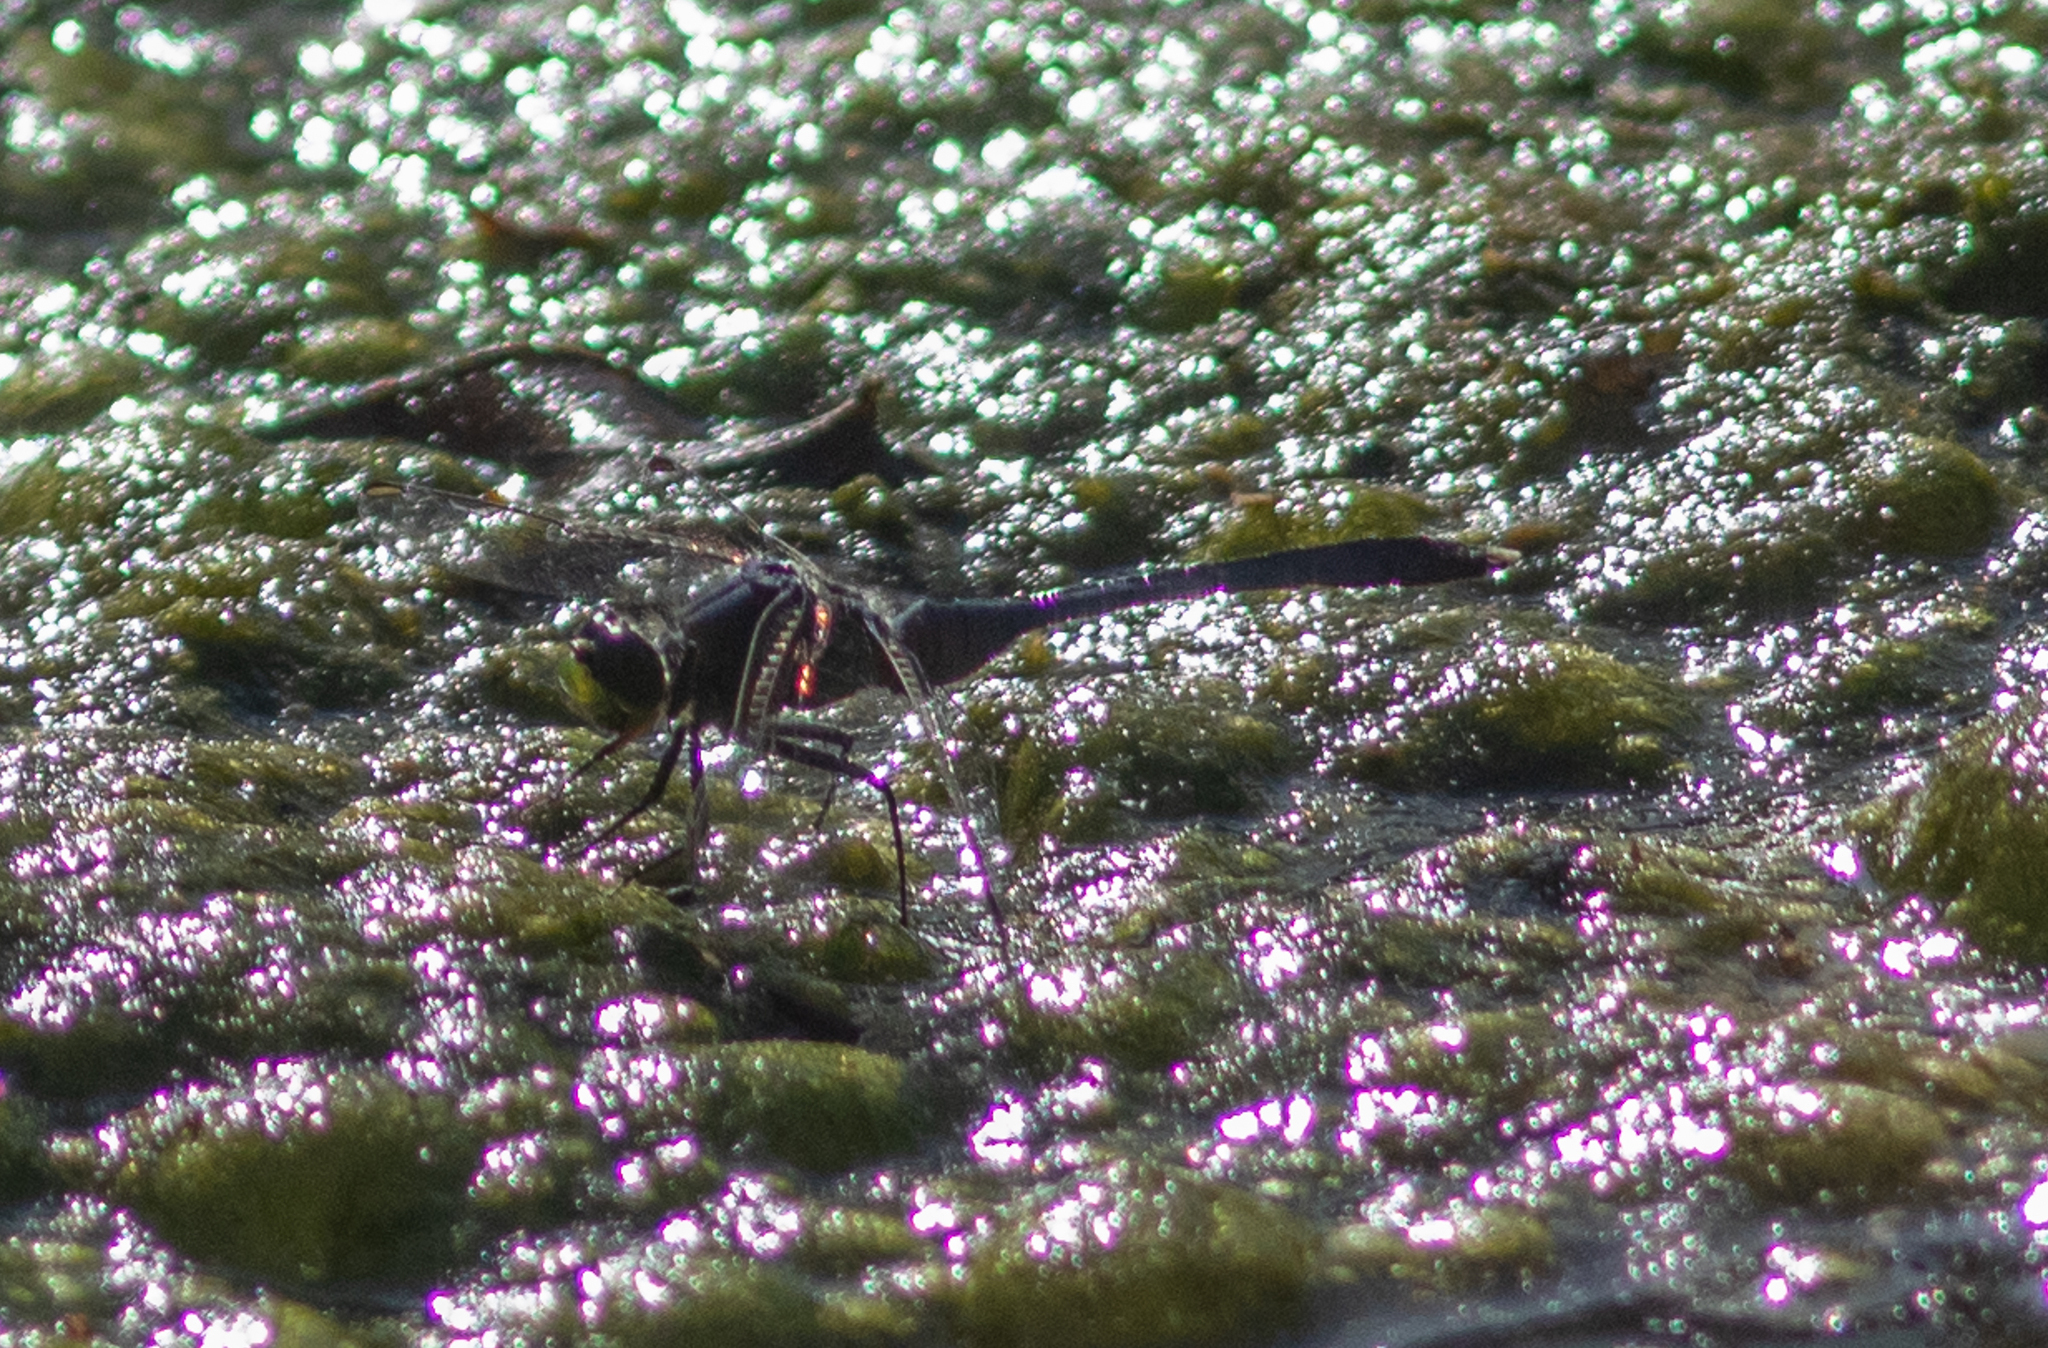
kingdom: Animalia
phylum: Arthropoda
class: Insecta
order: Odonata
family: Libellulidae
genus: Erythemis
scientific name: Erythemis plebeja
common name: Pin-tailed pondhawk
